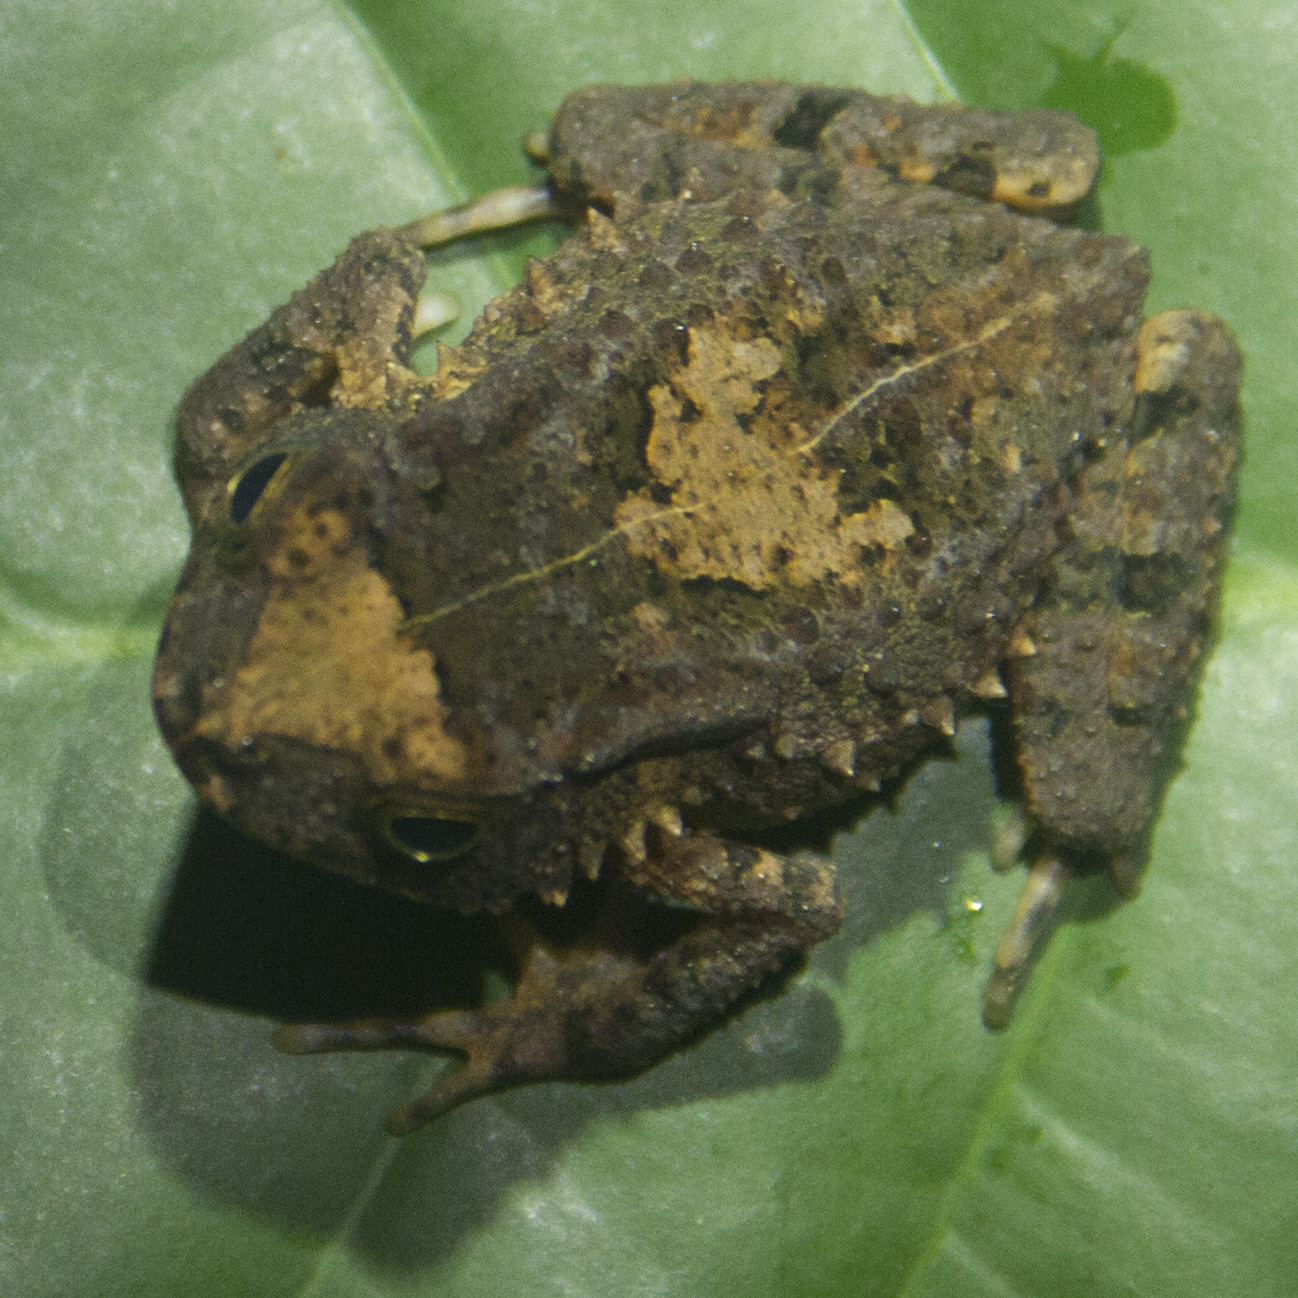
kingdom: Animalia
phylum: Chordata
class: Amphibia
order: Anura
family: Bufonidae
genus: Sclerophrys
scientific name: Sclerophrys camerunensis
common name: Cameroon toad
